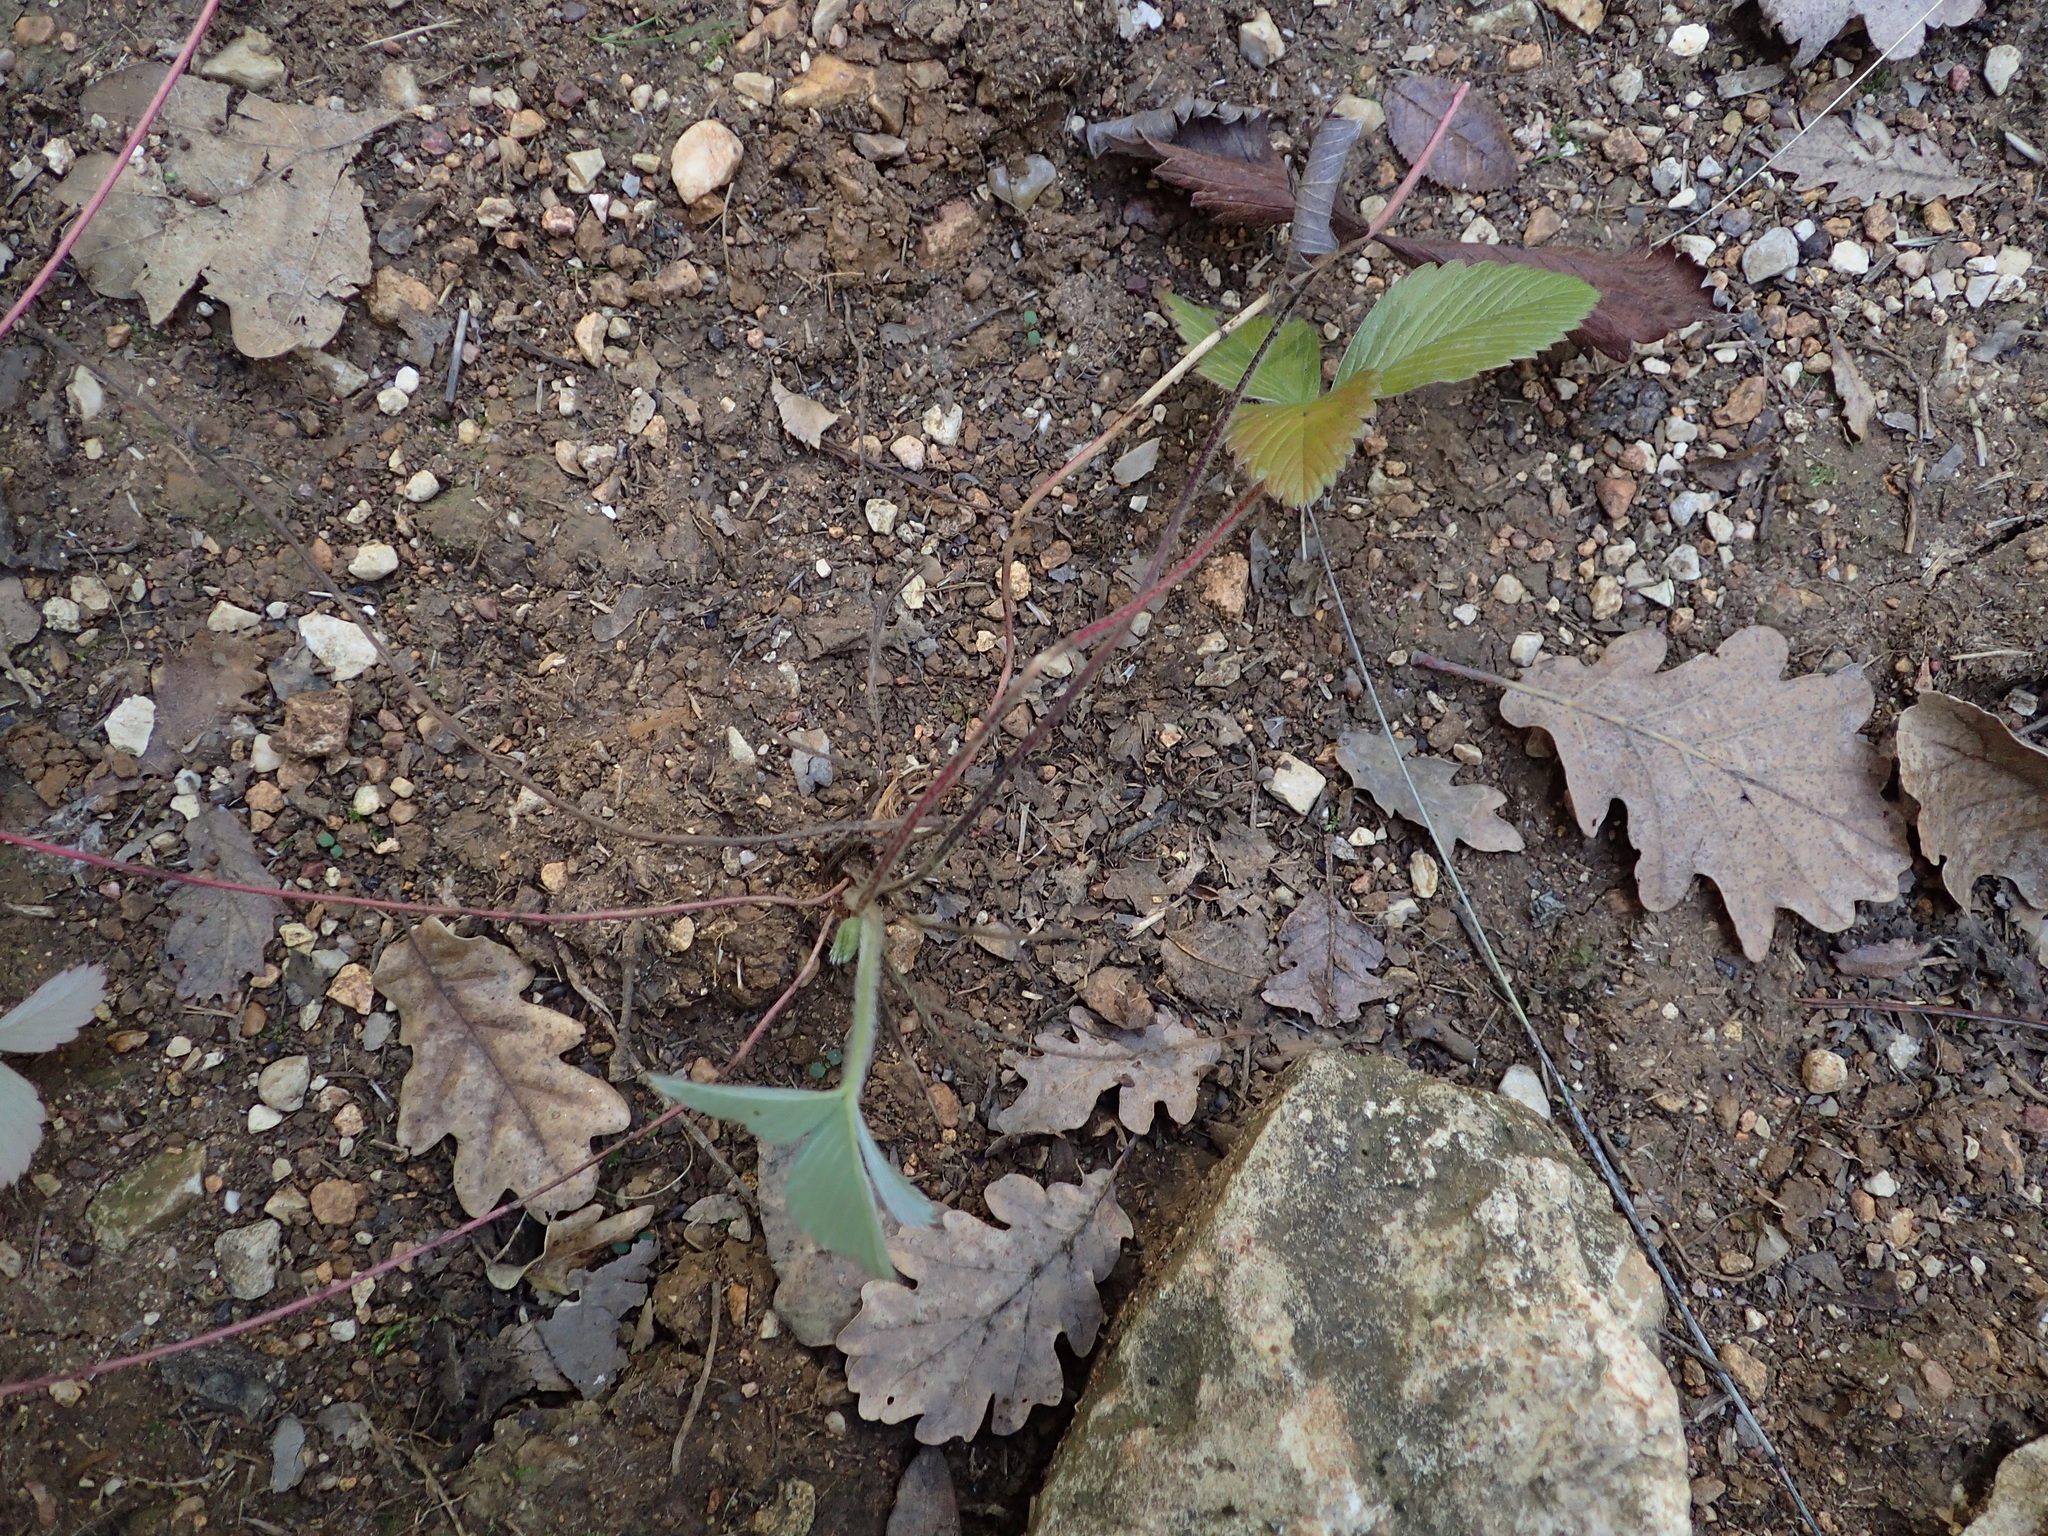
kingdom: Plantae
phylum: Tracheophyta
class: Magnoliopsida
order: Rosales
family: Rosaceae
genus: Fragaria
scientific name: Fragaria viridis
